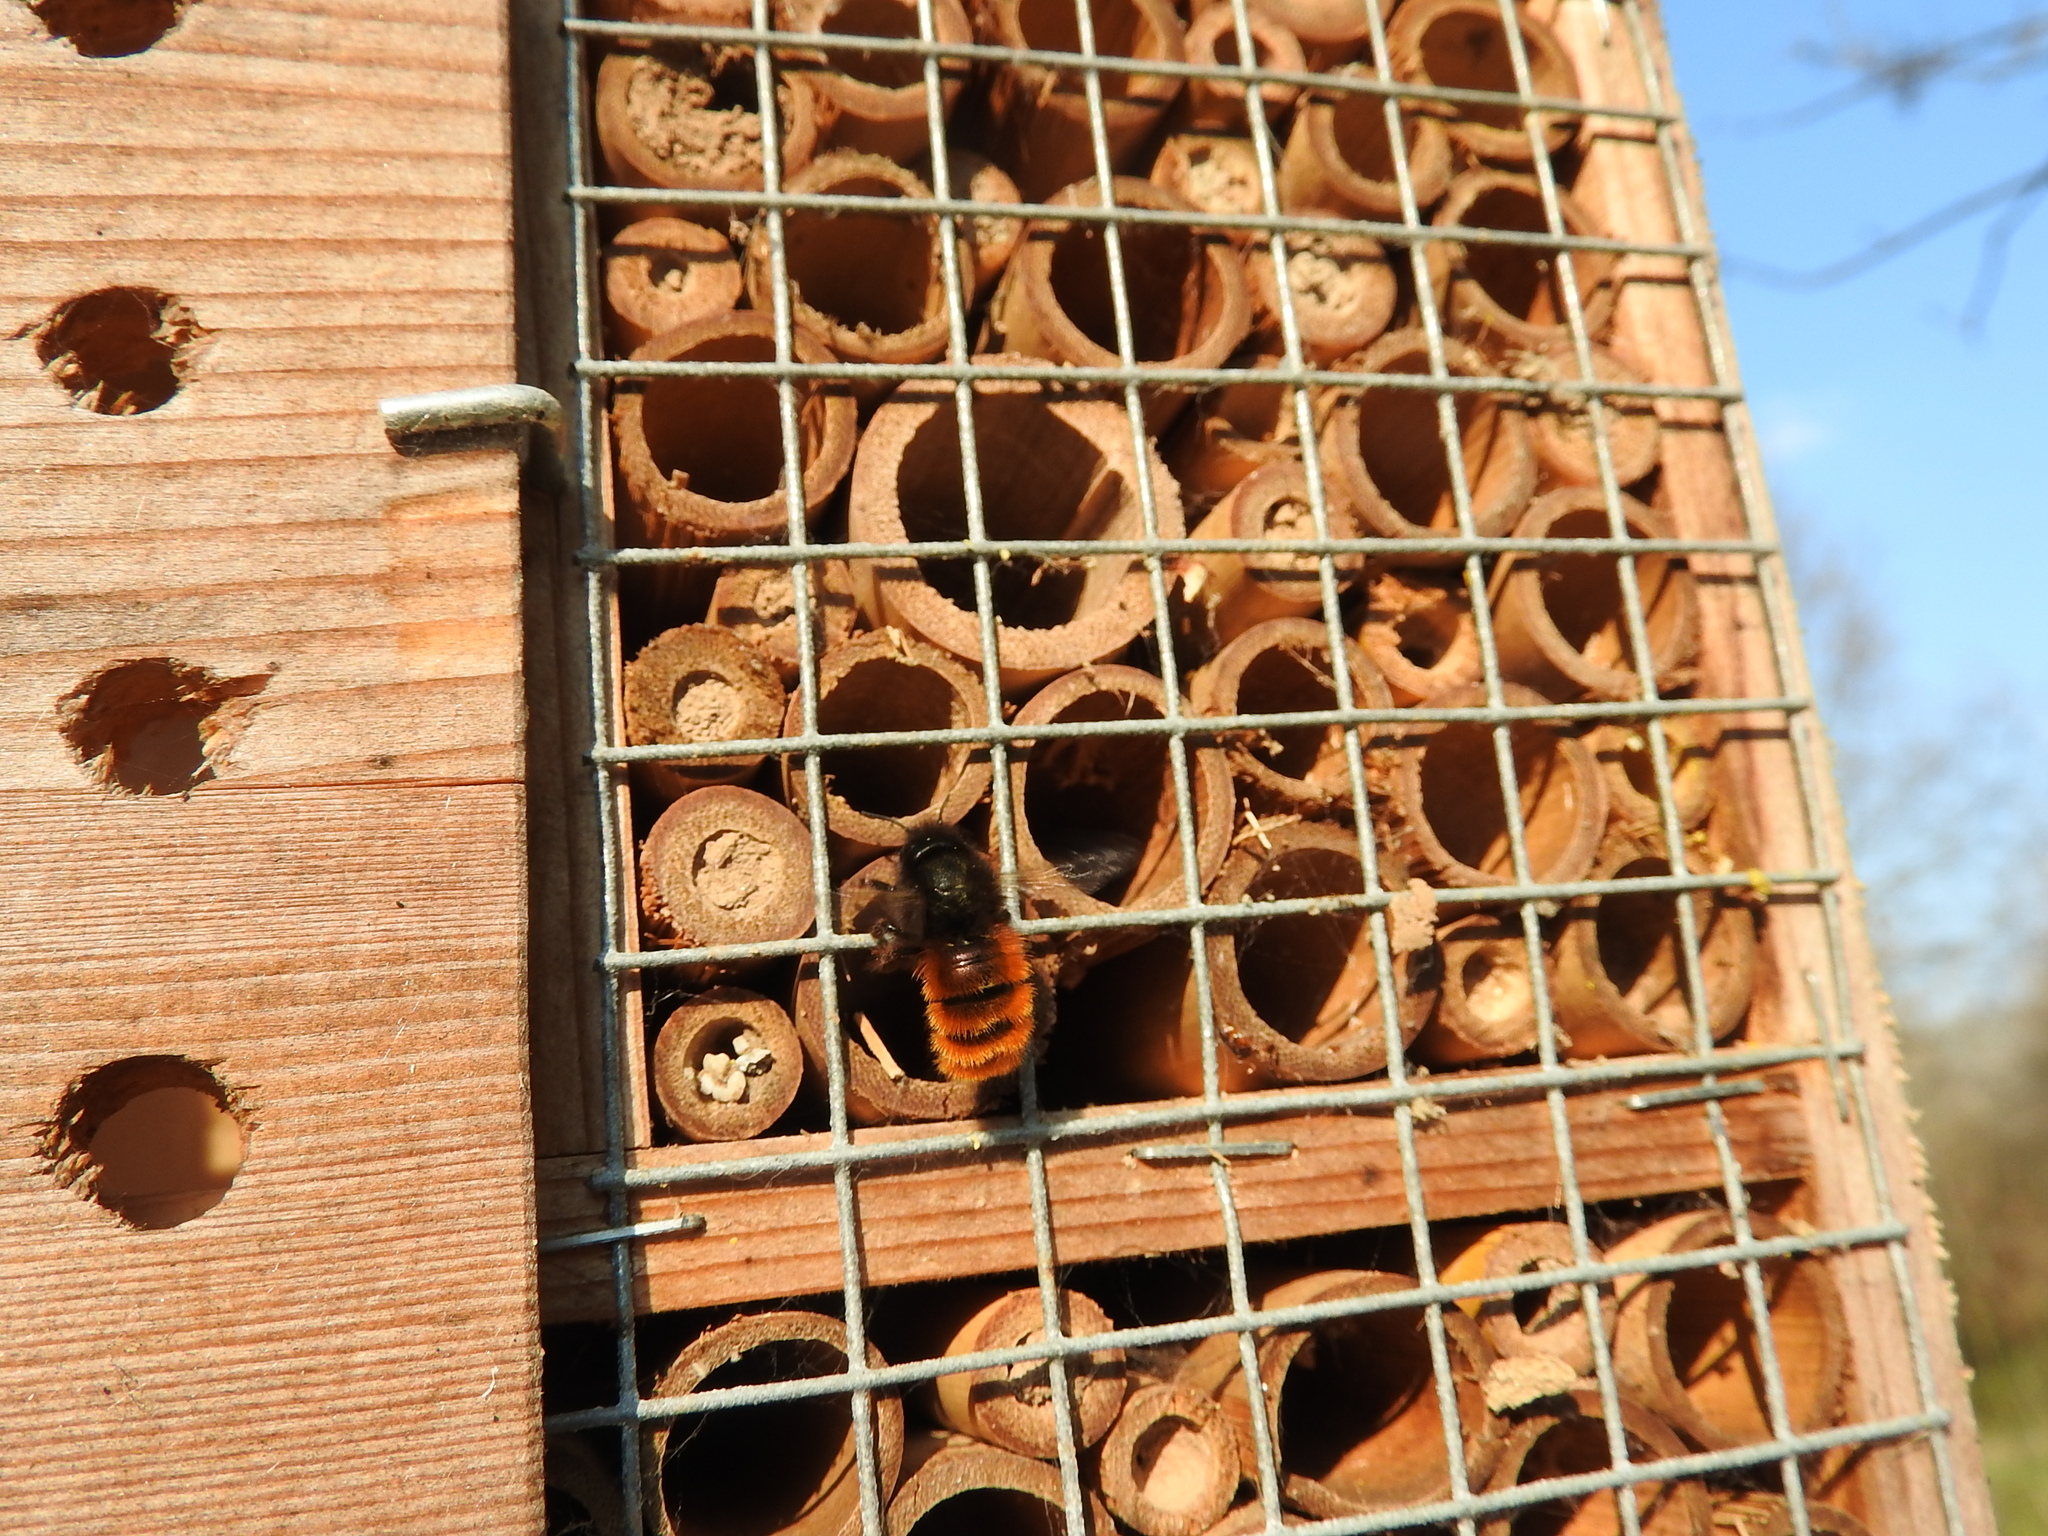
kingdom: Animalia
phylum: Arthropoda
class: Insecta
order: Hymenoptera
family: Megachilidae
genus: Osmia
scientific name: Osmia cornuta
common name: Mason bee
